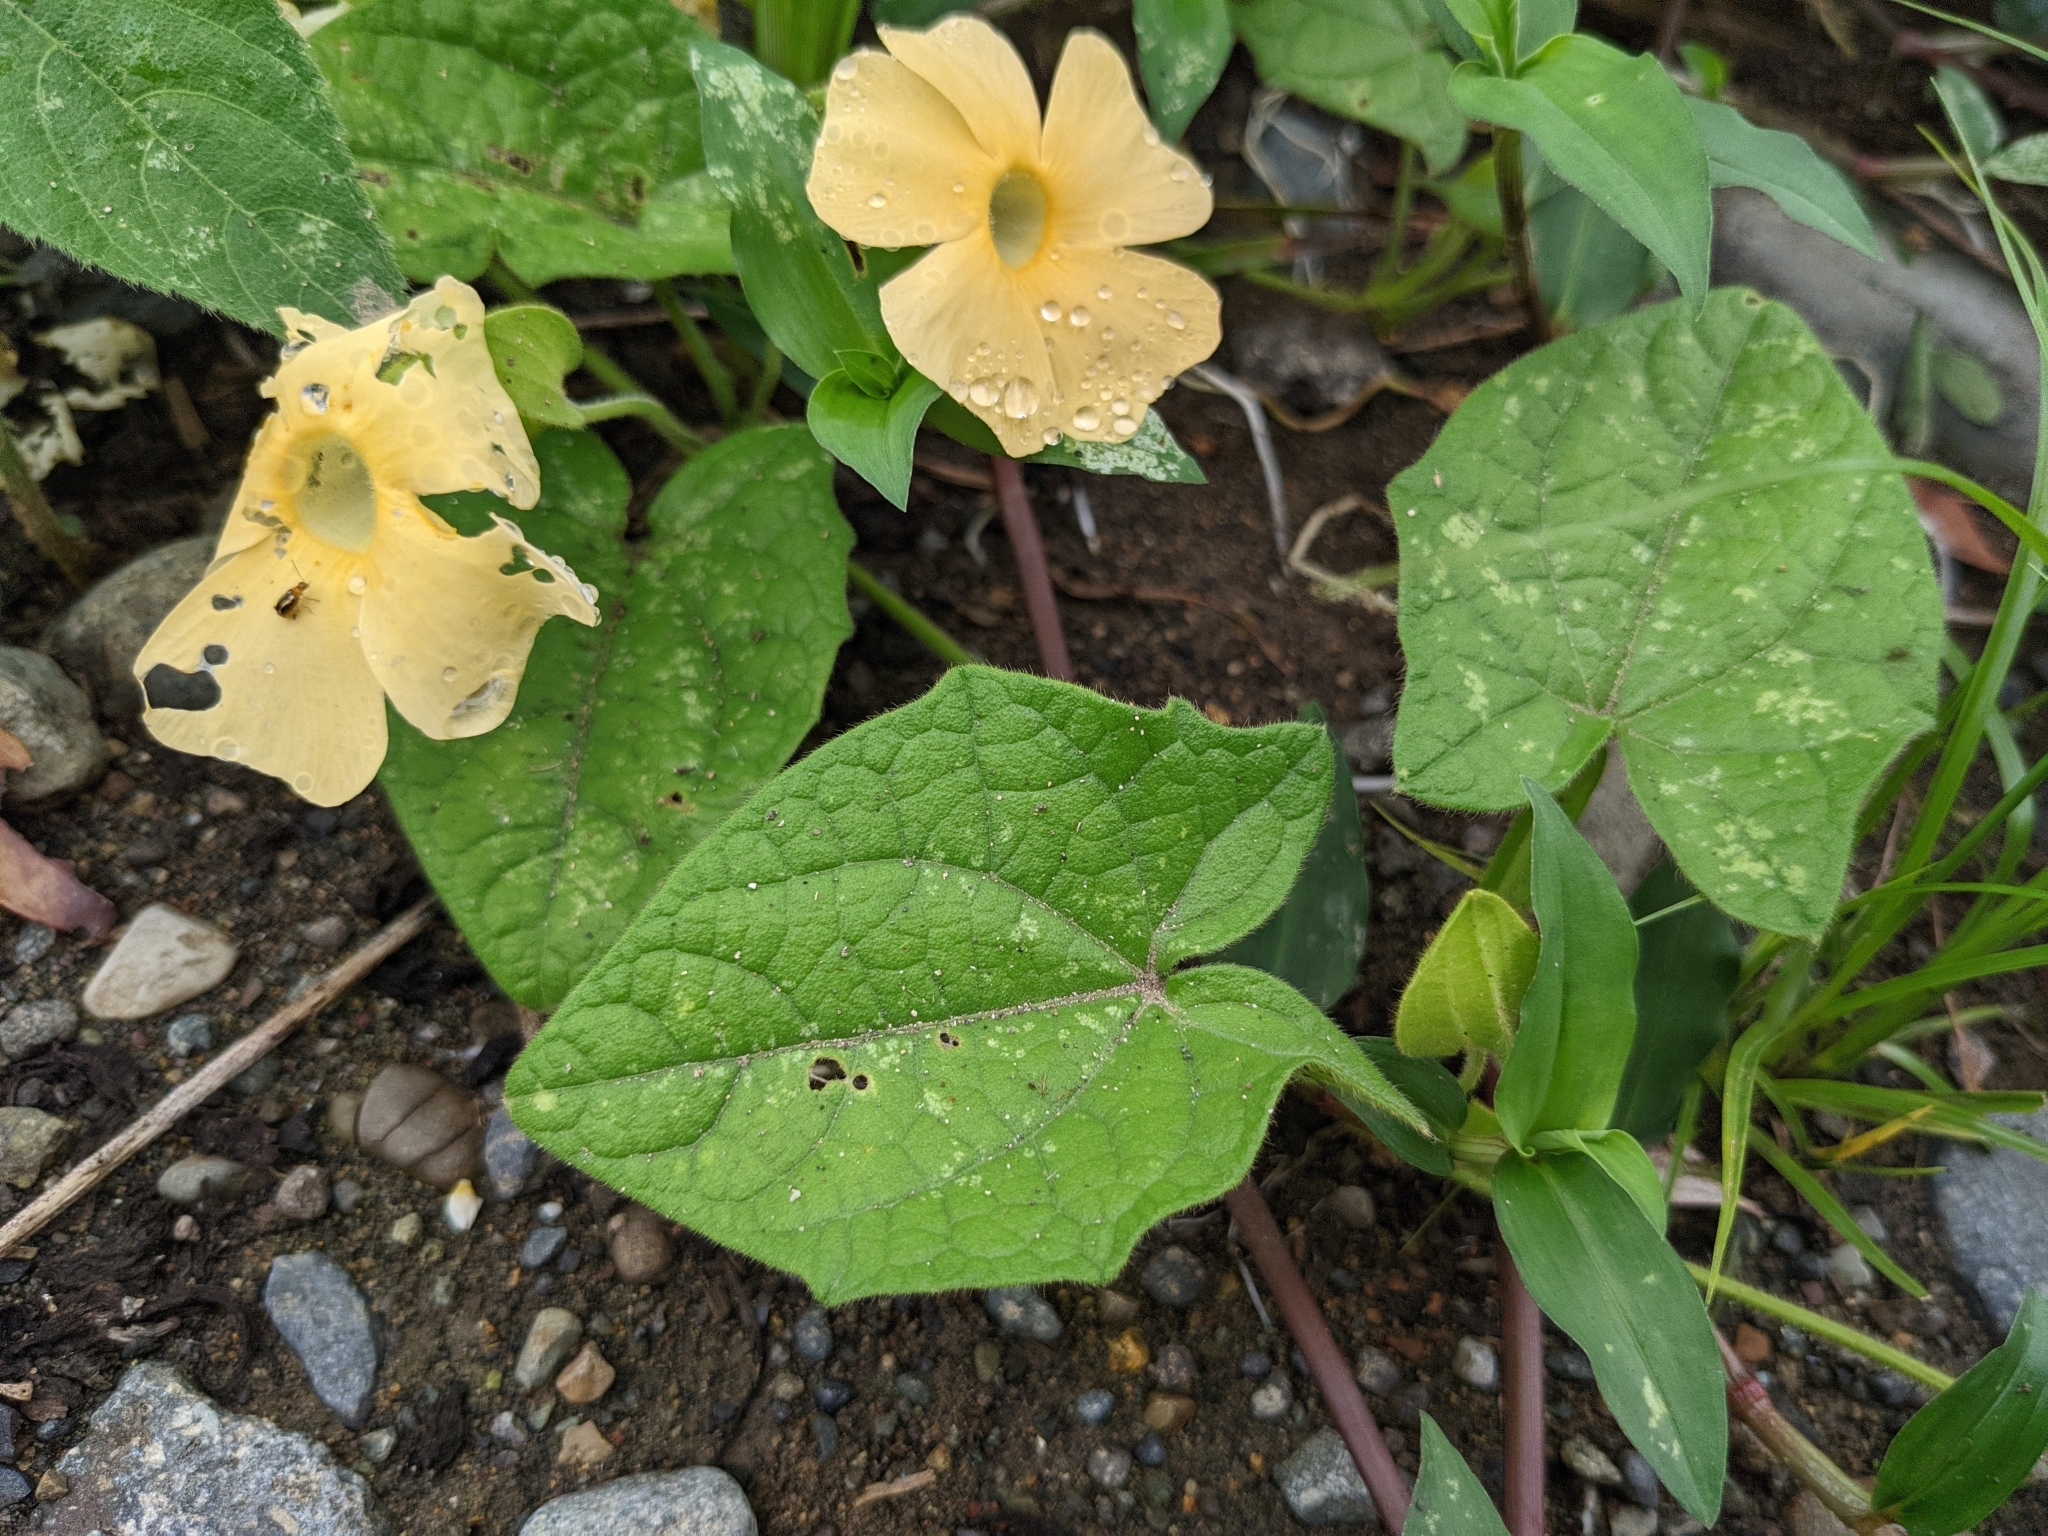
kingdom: Plantae
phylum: Tracheophyta
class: Magnoliopsida
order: Lamiales
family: Acanthaceae
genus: Thunbergia
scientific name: Thunbergia alata
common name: Blackeyed susan vine
